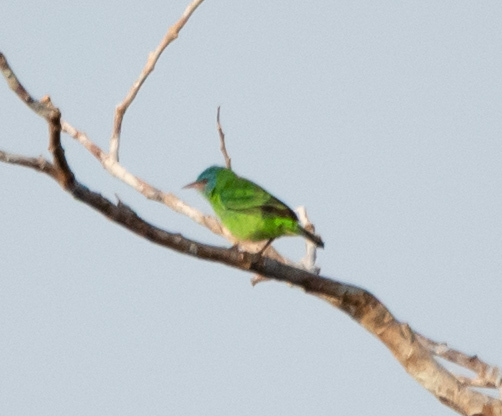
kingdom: Animalia
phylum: Chordata
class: Aves
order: Passeriformes
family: Thraupidae
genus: Dacnis
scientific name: Dacnis cayana
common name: Blue dacnis
